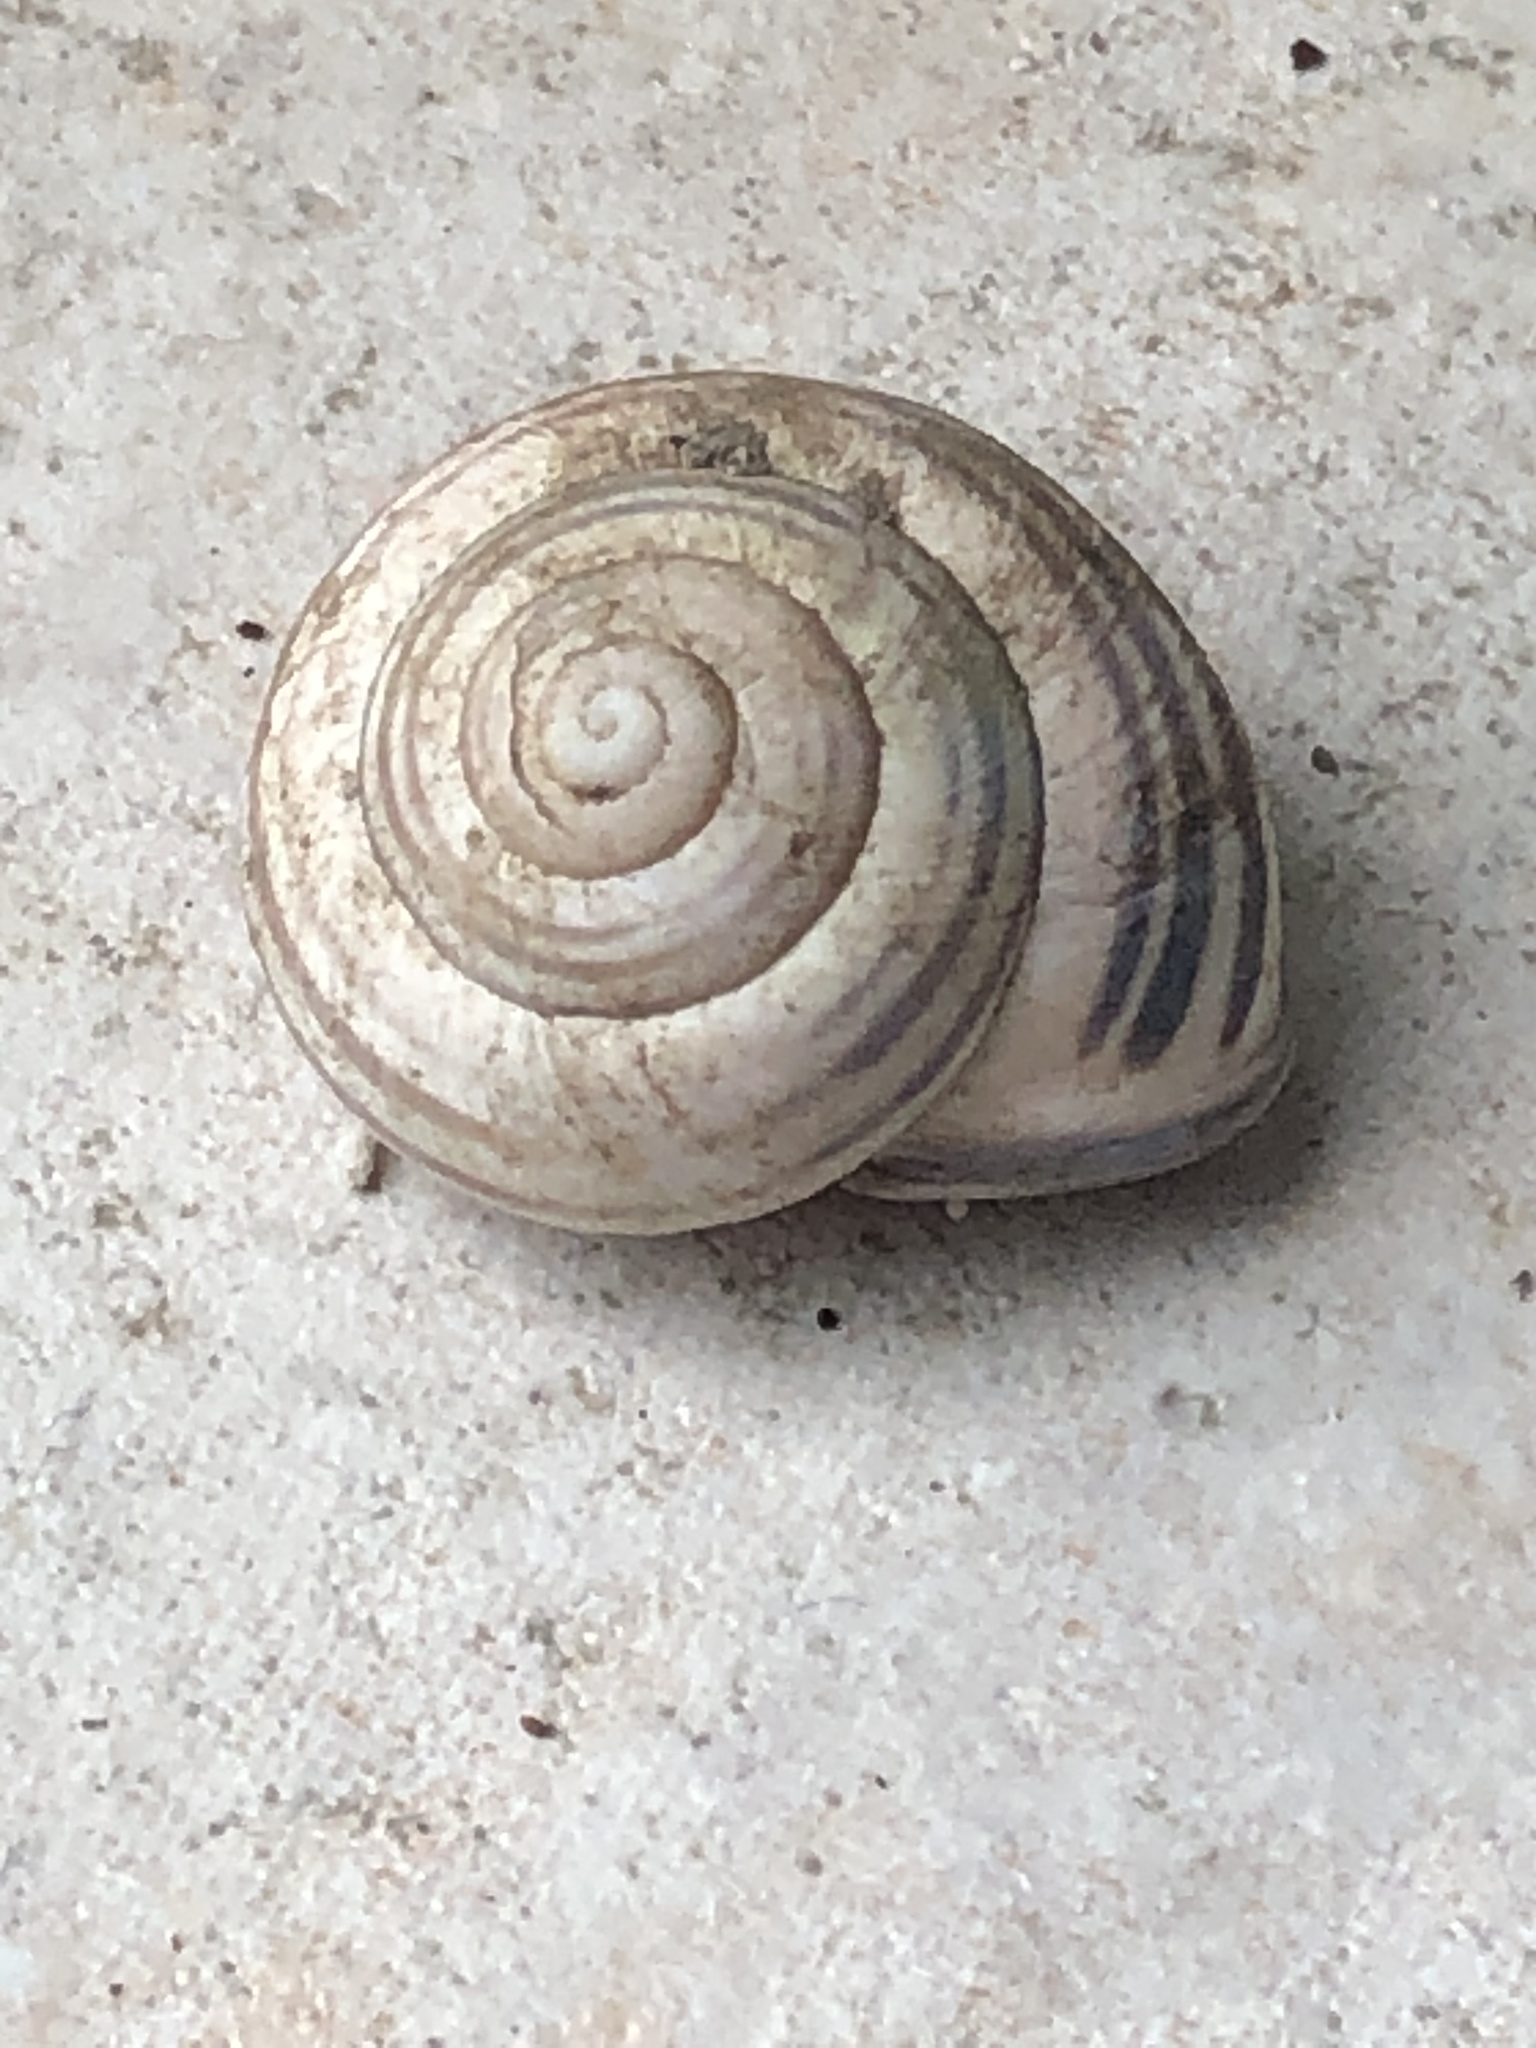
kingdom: Animalia
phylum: Mollusca
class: Gastropoda
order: Stylommatophora
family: Helicidae
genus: Cepaea
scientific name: Cepaea nemoralis
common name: Grovesnail
